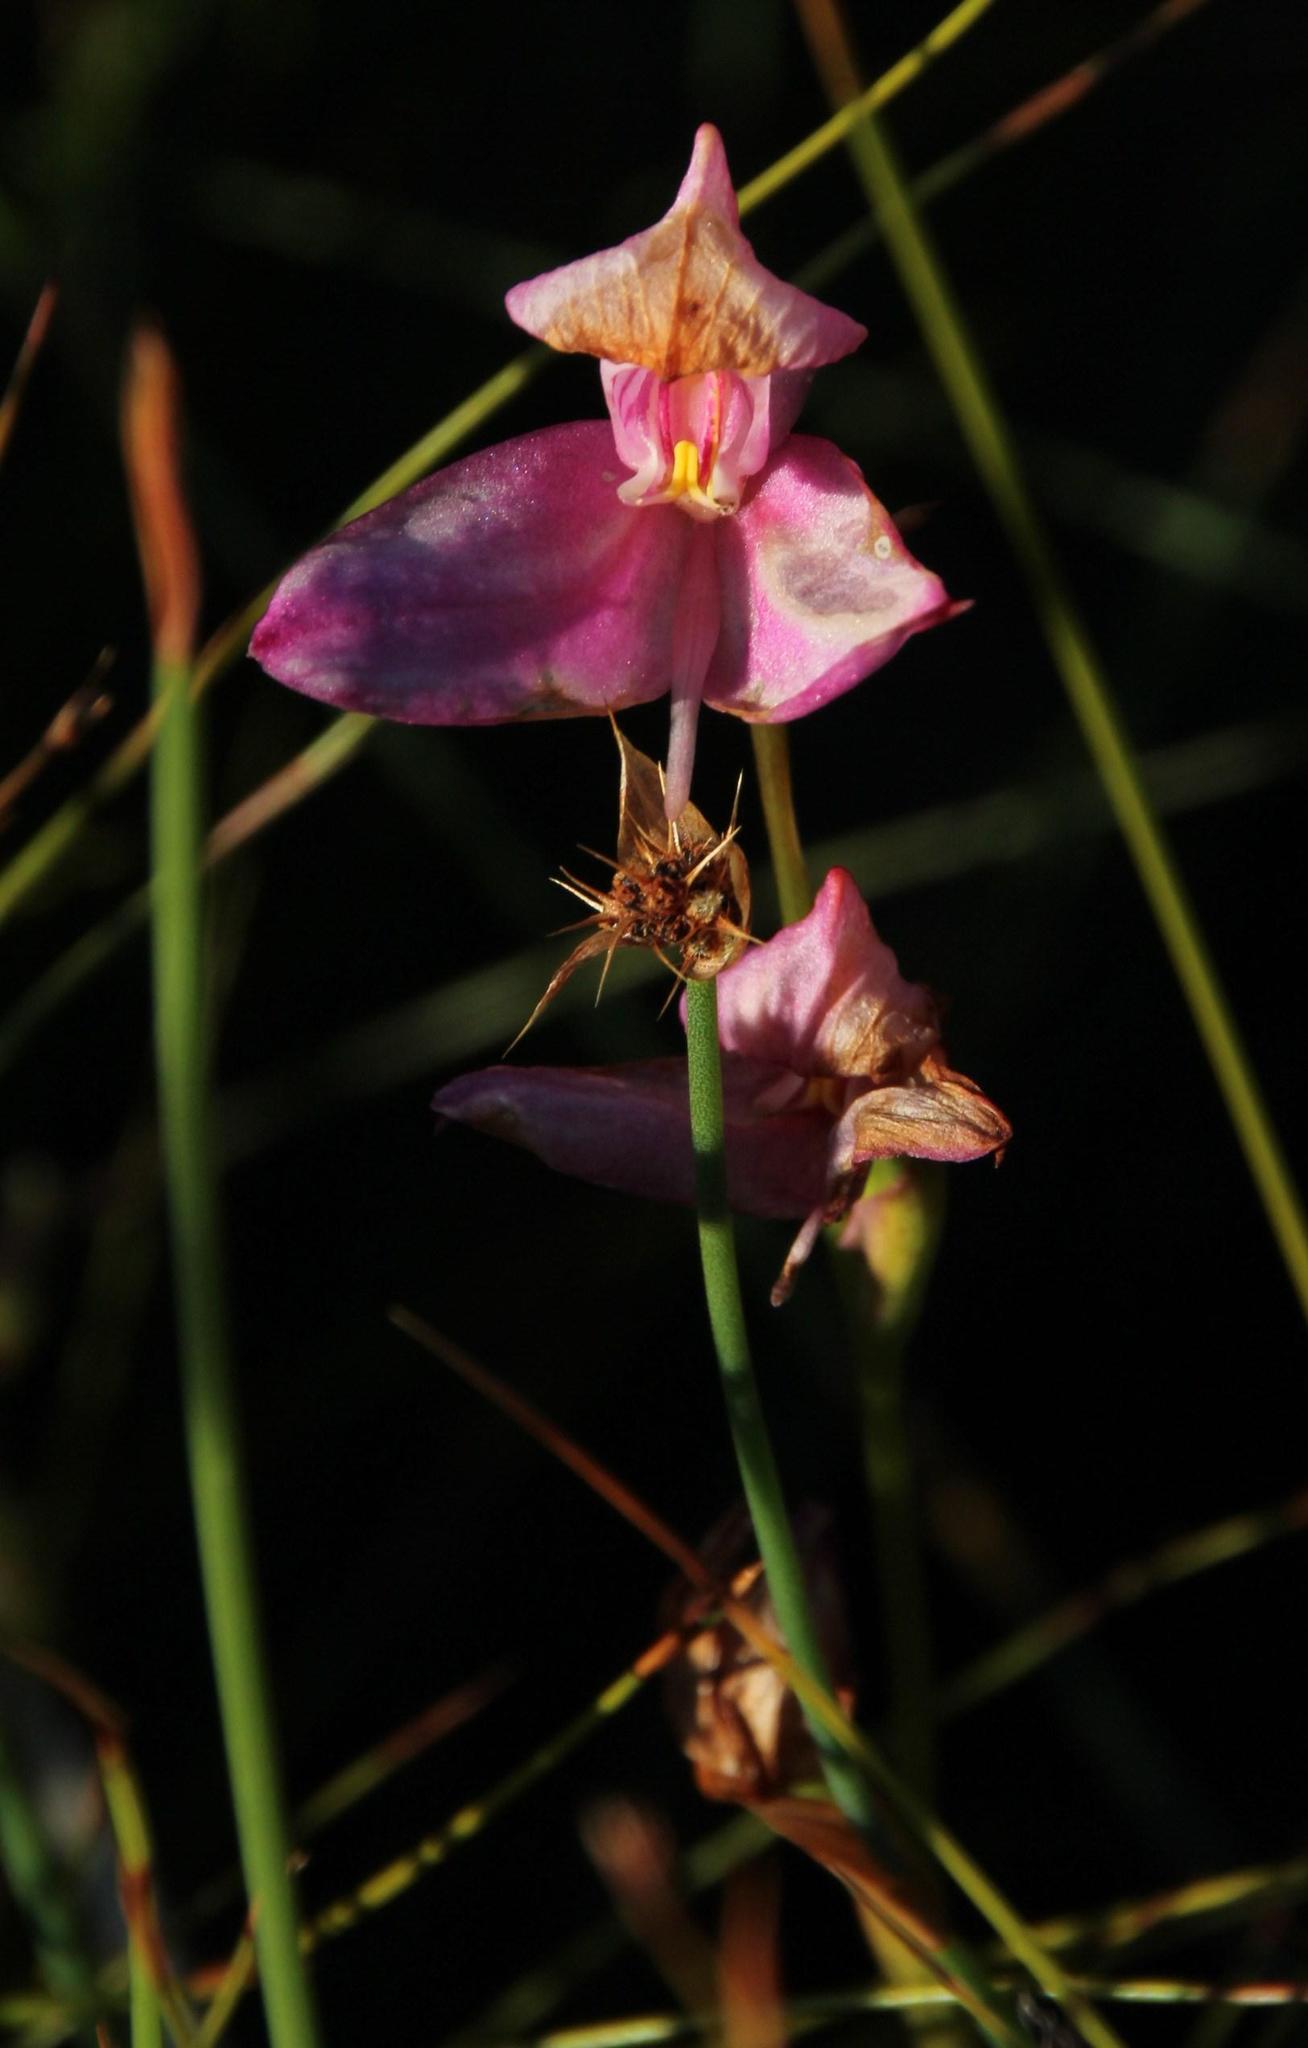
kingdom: Plantae
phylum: Tracheophyta
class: Liliopsida
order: Asparagales
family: Orchidaceae
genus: Disa
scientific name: Disa racemosa
